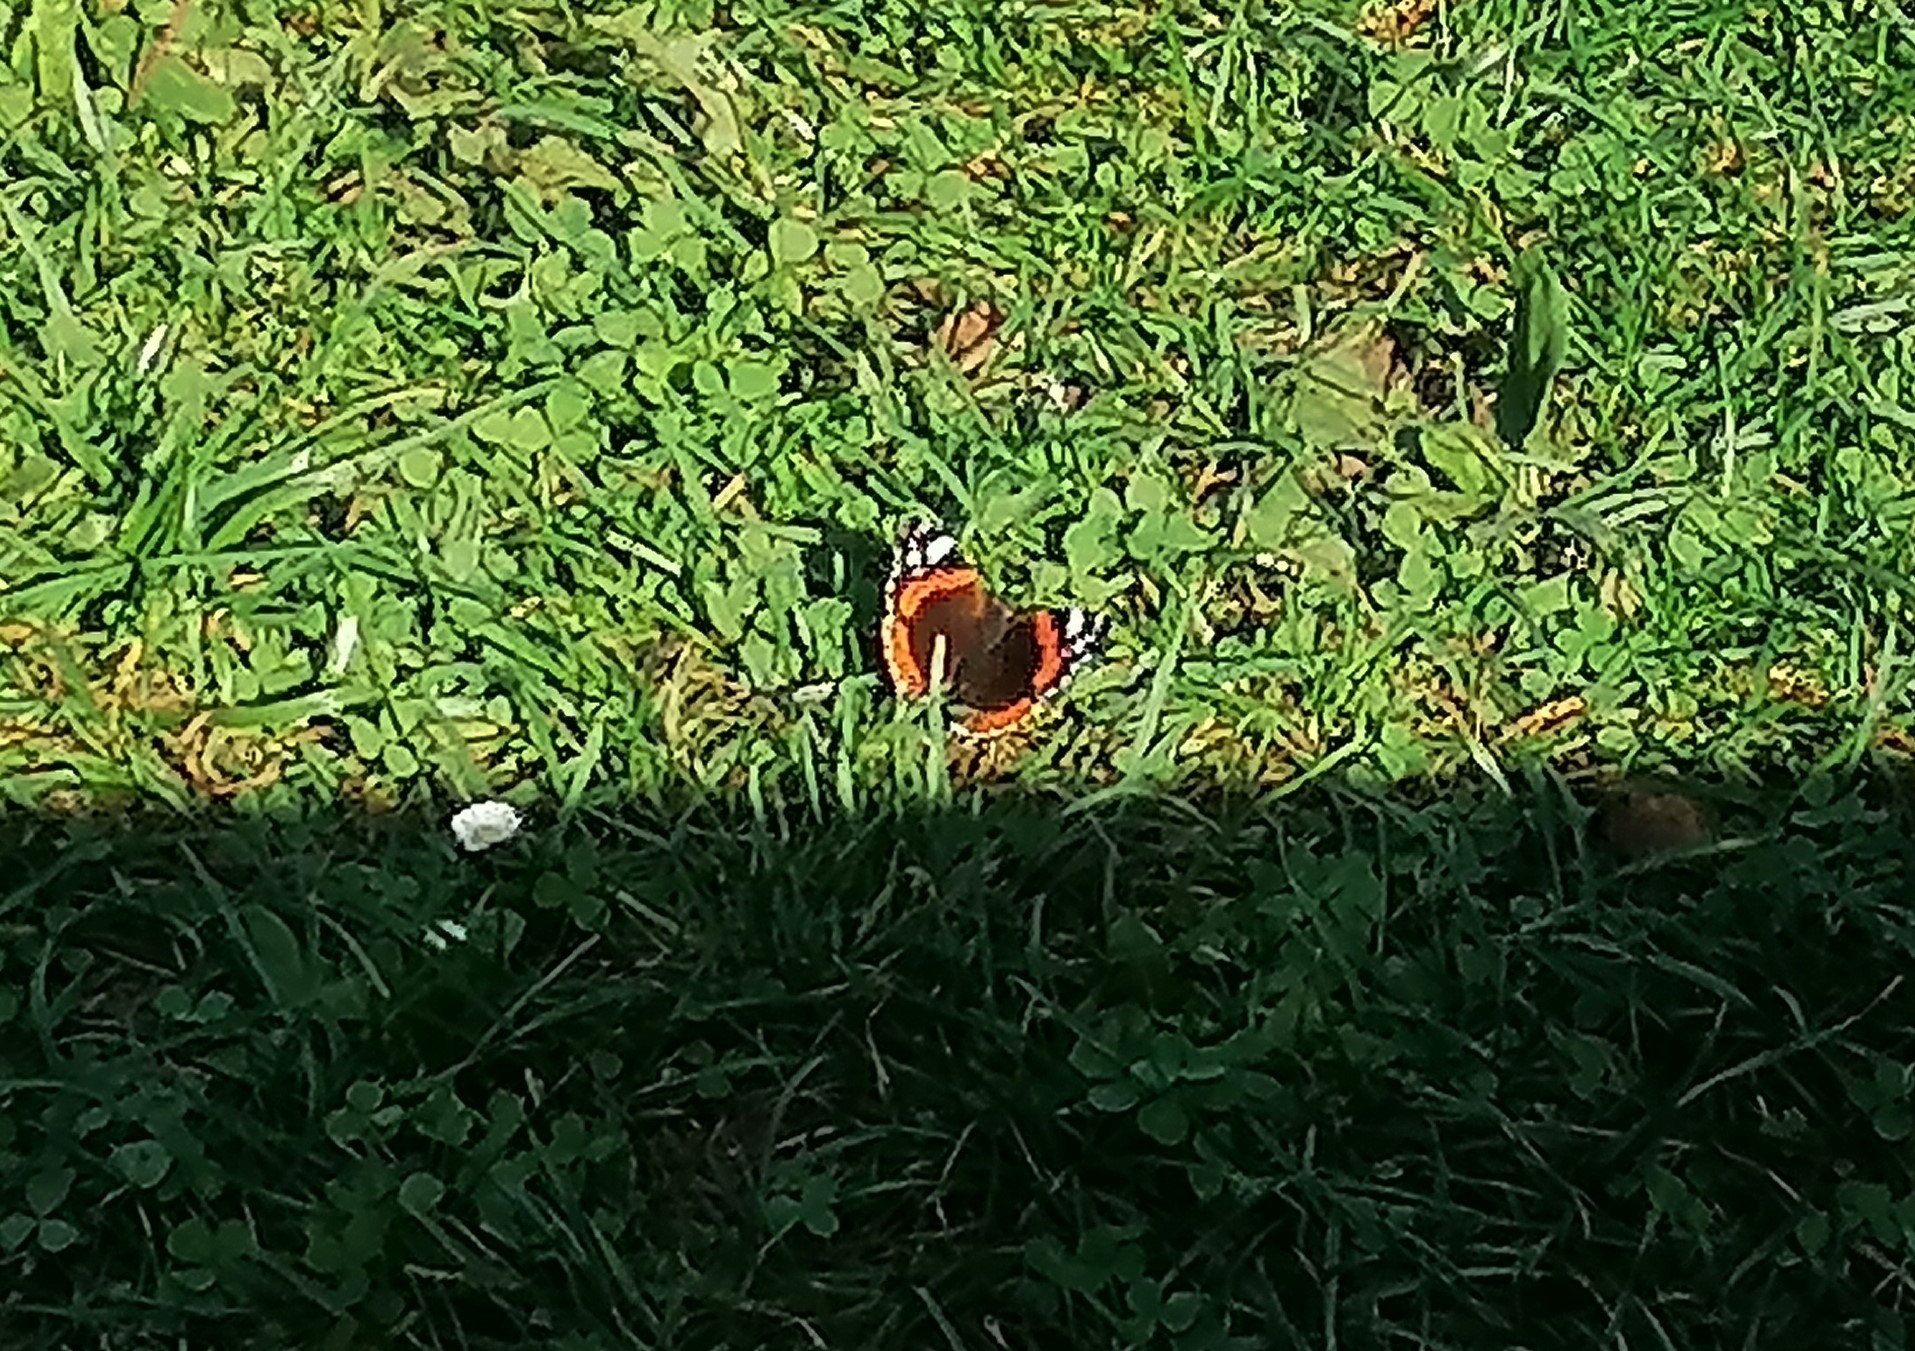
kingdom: Animalia
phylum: Arthropoda
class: Insecta
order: Lepidoptera
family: Nymphalidae
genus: Vanessa
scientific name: Vanessa atalanta
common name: Red admiral
